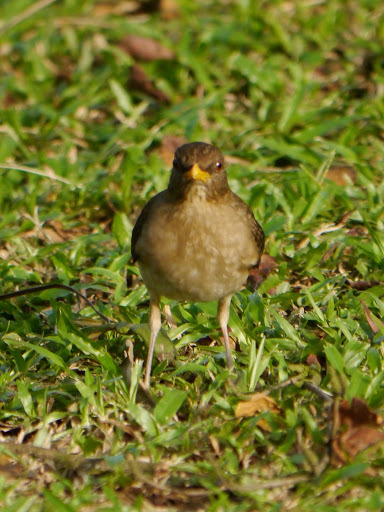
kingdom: Animalia
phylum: Chordata
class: Aves
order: Passeriformes
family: Turdidae
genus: Turdus
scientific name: Turdus pelios
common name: African thrush
